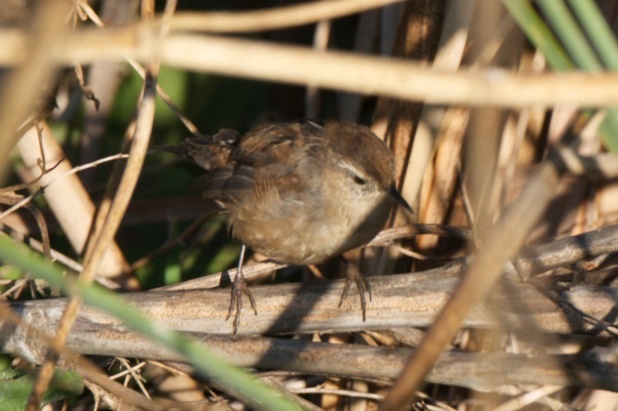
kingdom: Animalia
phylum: Chordata
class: Aves
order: Passeriformes
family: Troglodytidae
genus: Cistothorus
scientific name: Cistothorus palustris
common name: Marsh wren
